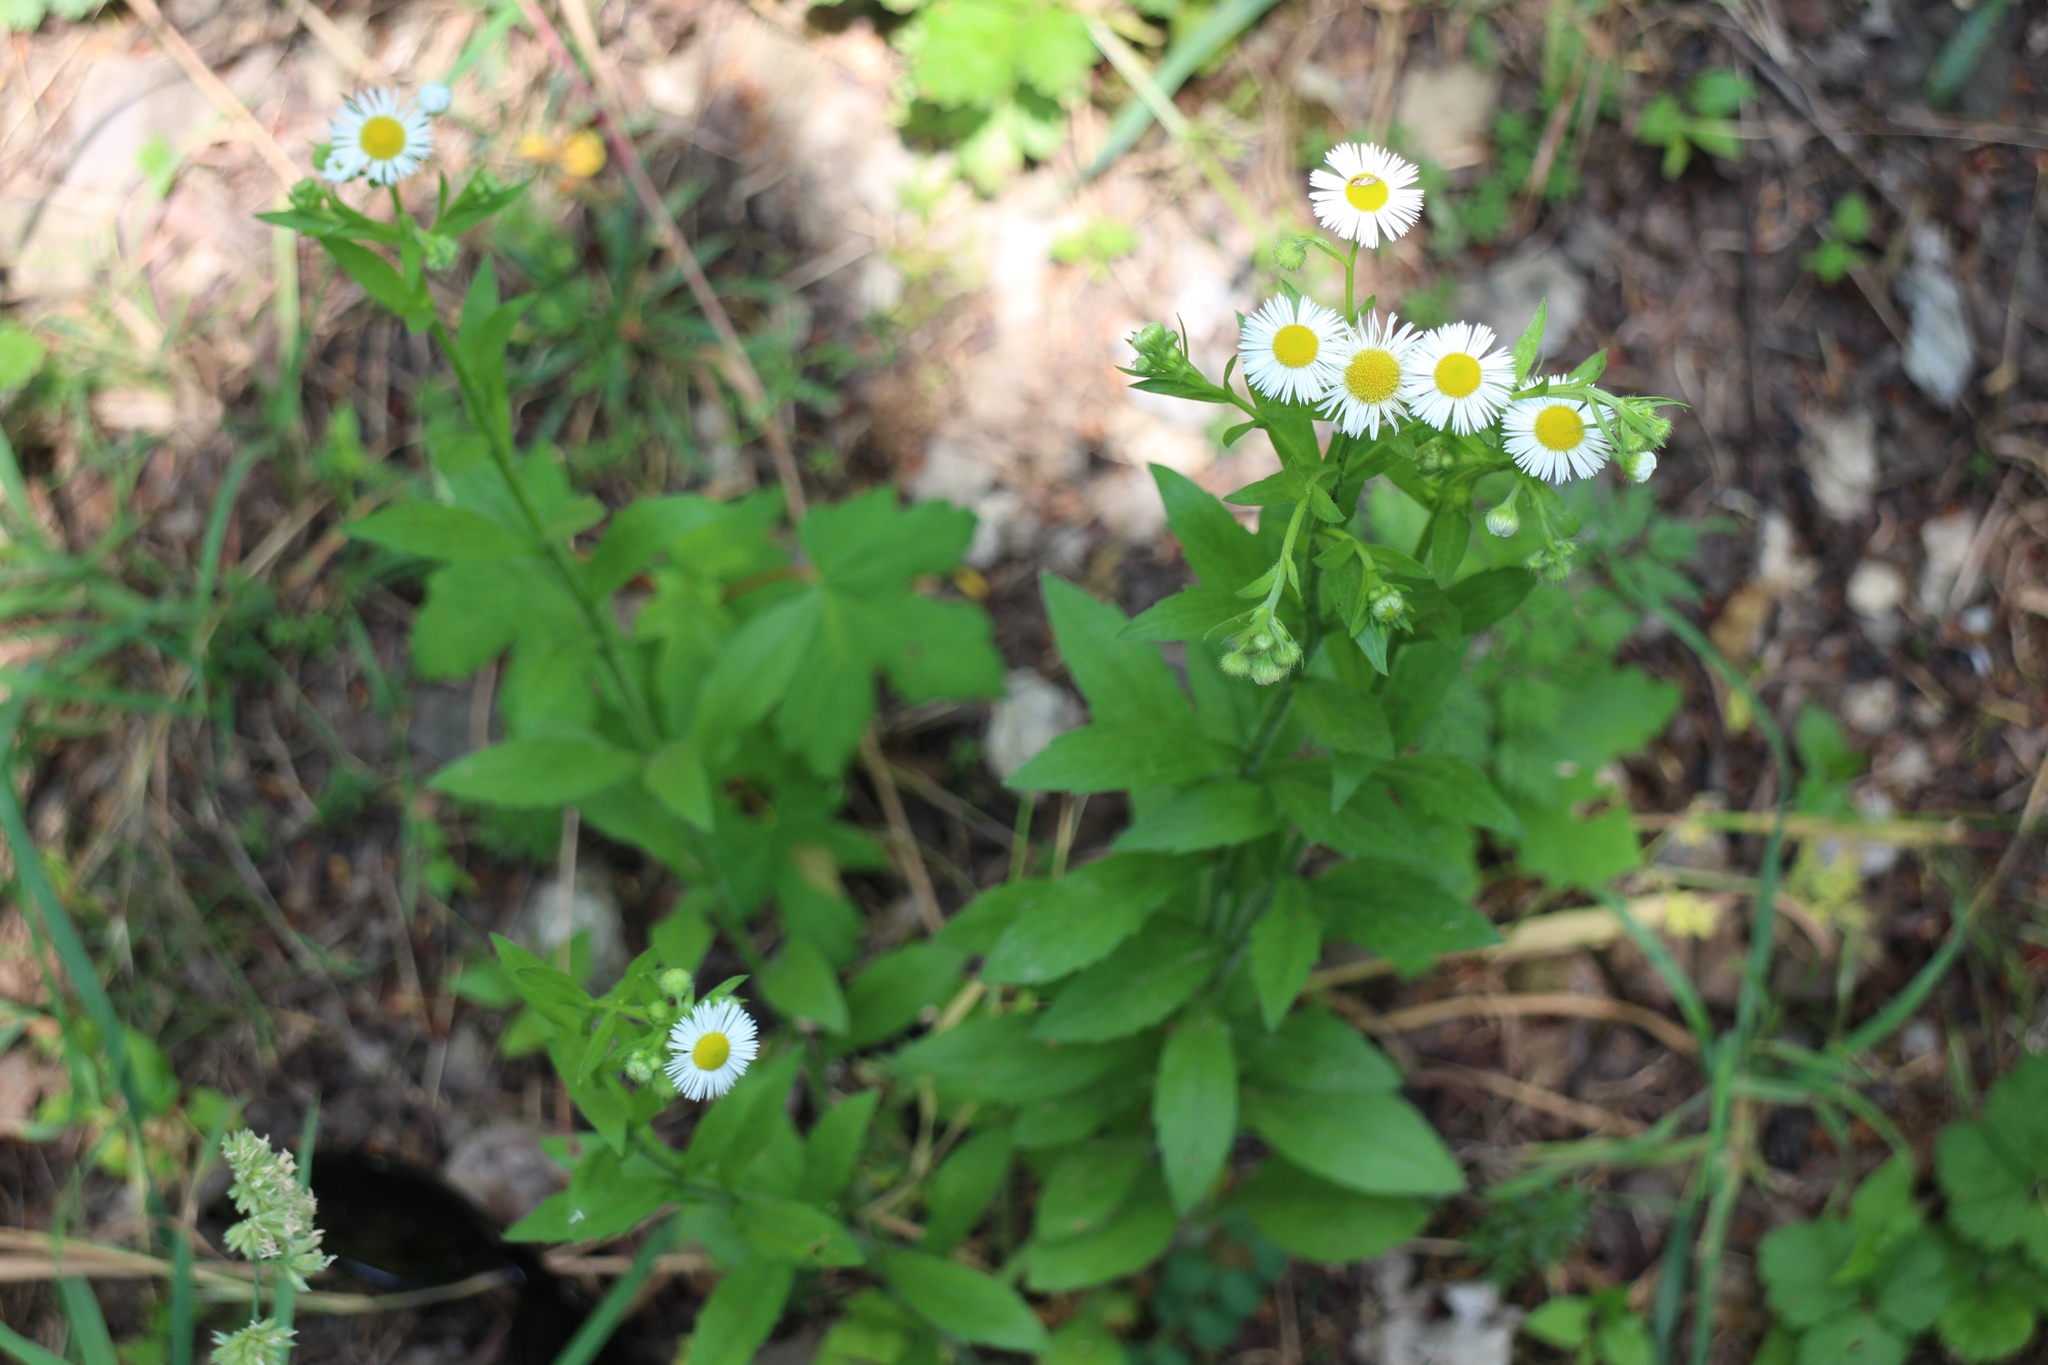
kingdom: Plantae
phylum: Tracheophyta
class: Magnoliopsida
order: Asterales
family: Asteraceae
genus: Erigeron
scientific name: Erigeron annuus
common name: Tall fleabane
